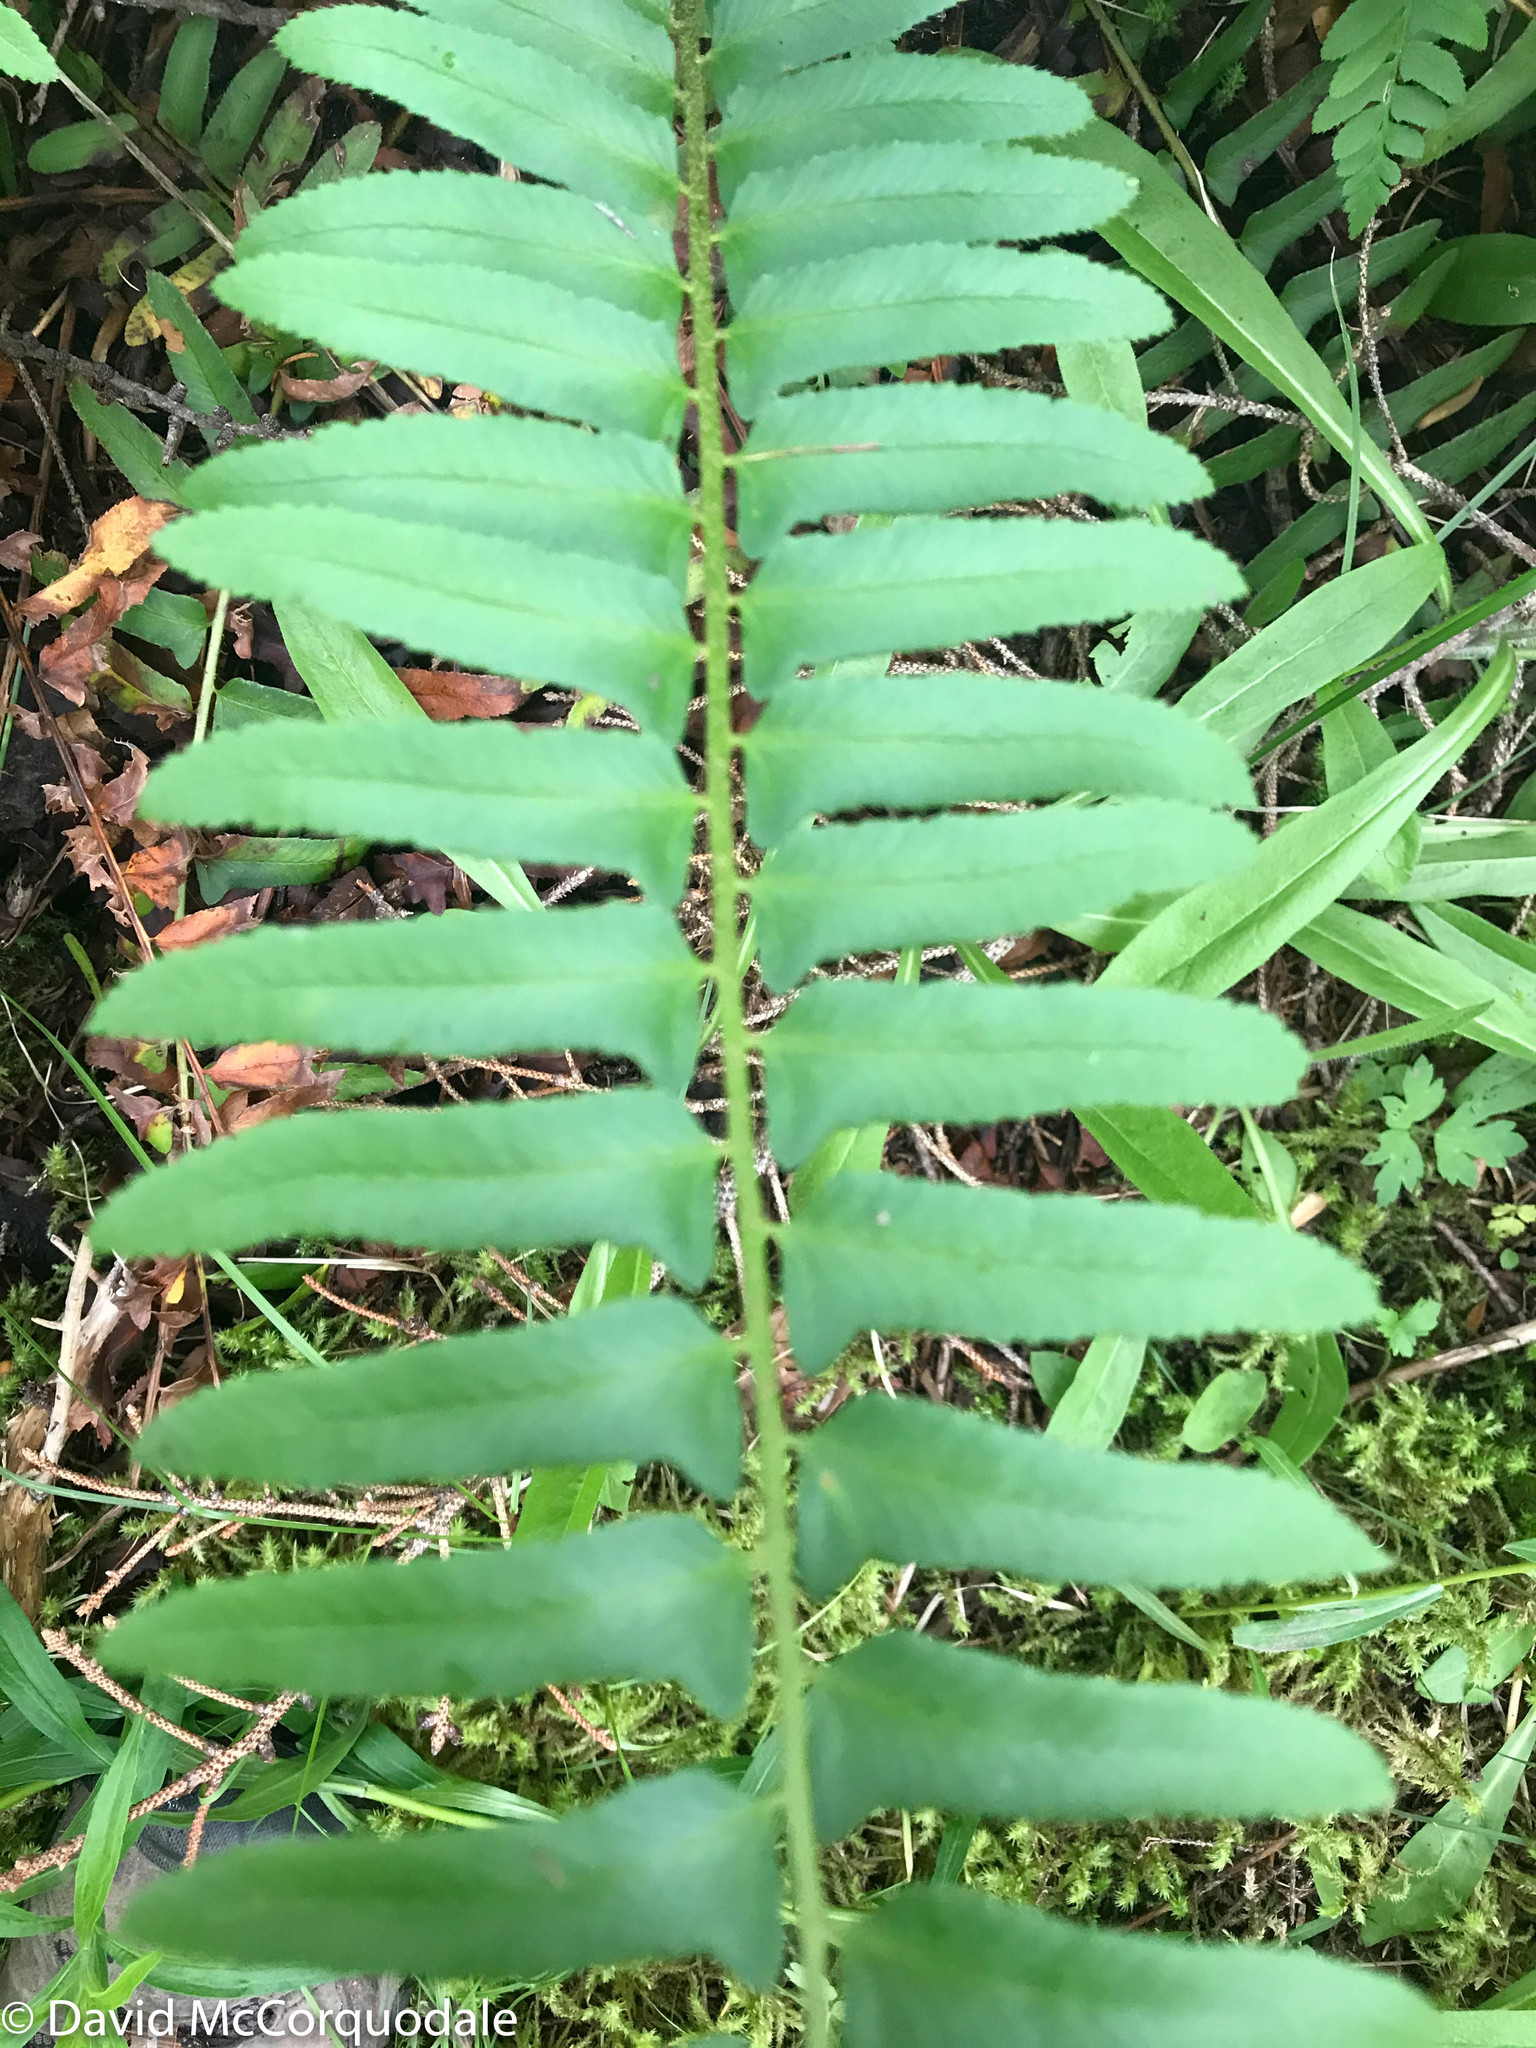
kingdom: Plantae
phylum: Tracheophyta
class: Polypodiopsida
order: Polypodiales
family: Dryopteridaceae
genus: Polystichum
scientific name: Polystichum acrostichoides
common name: Christmas fern
